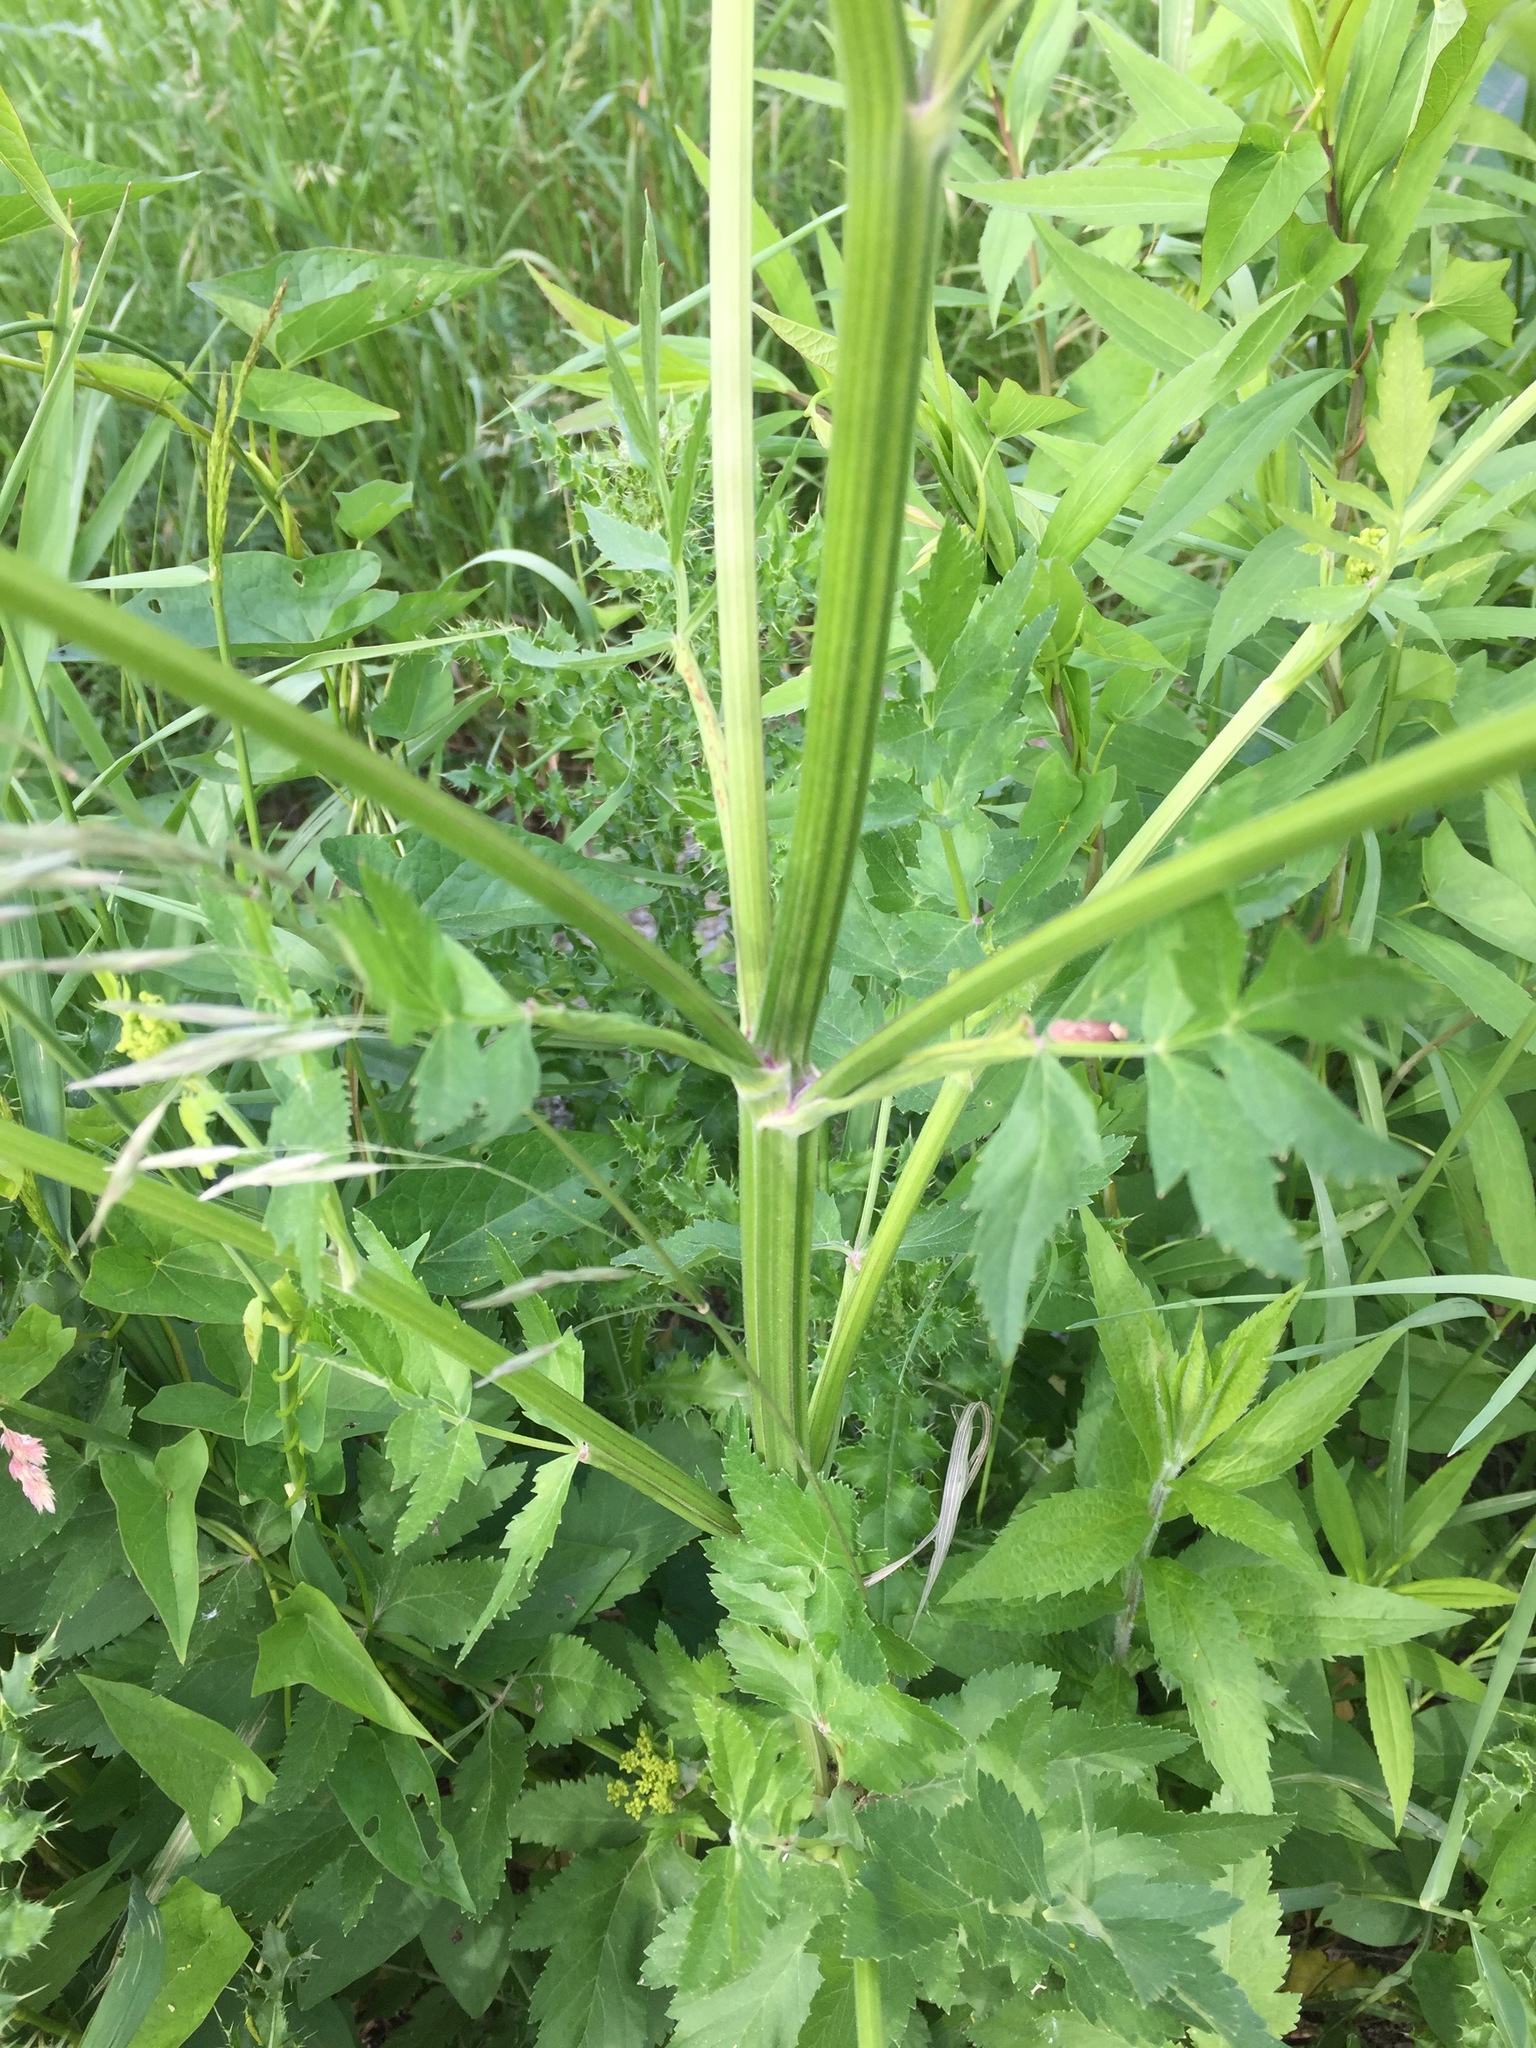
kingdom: Plantae
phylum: Tracheophyta
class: Magnoliopsida
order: Apiales
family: Apiaceae
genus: Pastinaca
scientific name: Pastinaca sativa
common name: Wild parsnip
